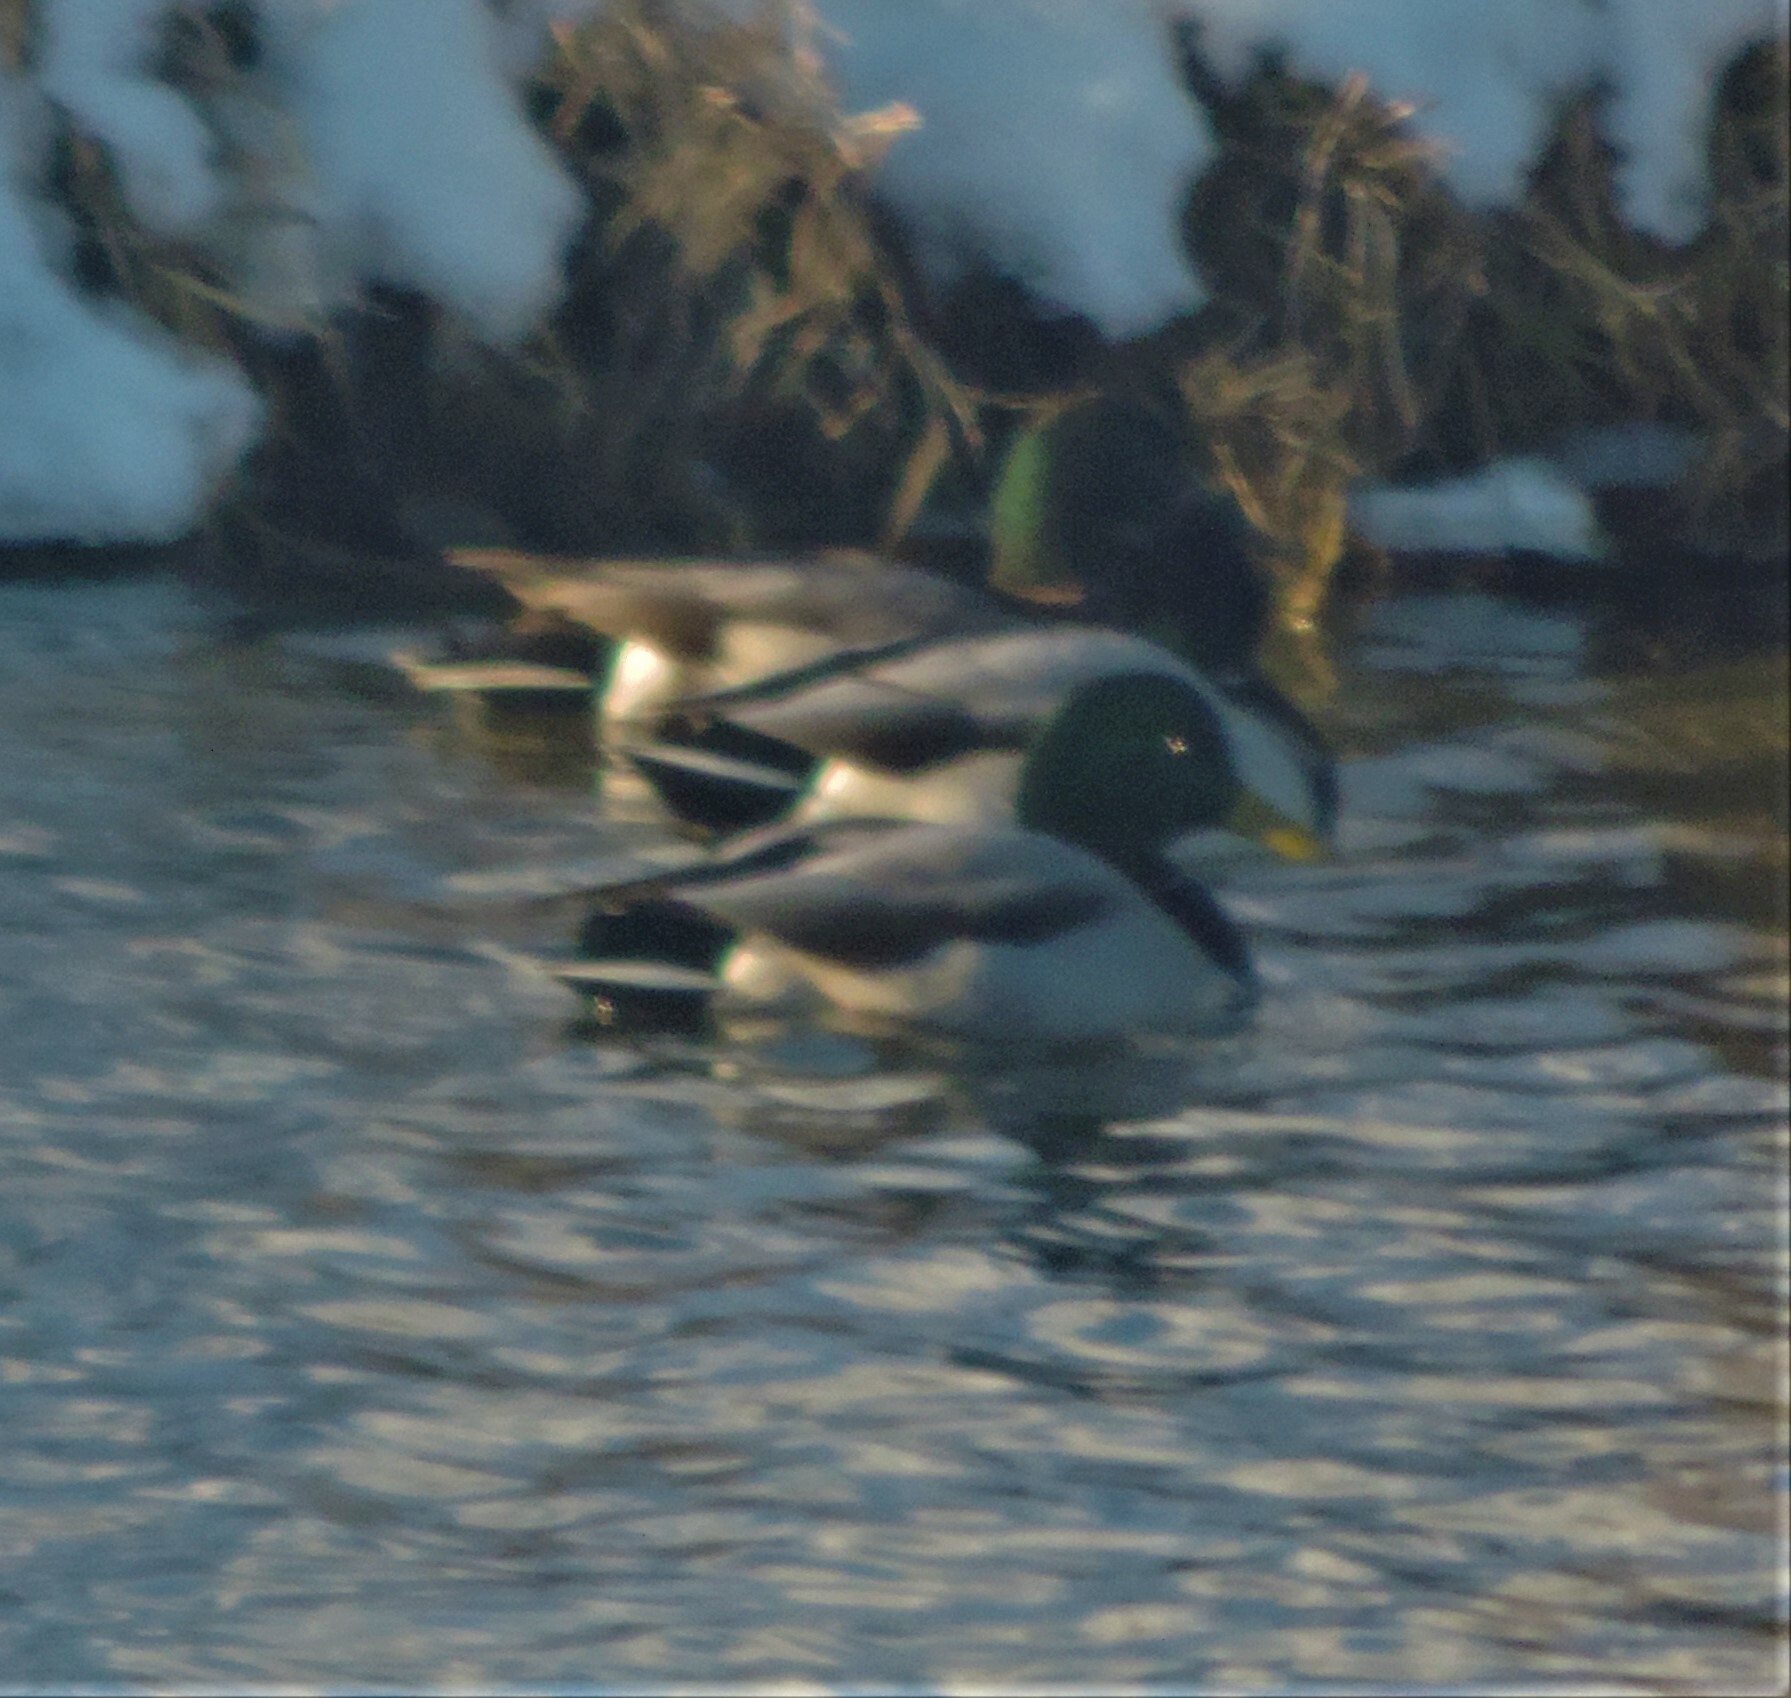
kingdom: Animalia
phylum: Chordata
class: Aves
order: Anseriformes
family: Anatidae
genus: Anas
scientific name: Anas platyrhynchos
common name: Mallard
